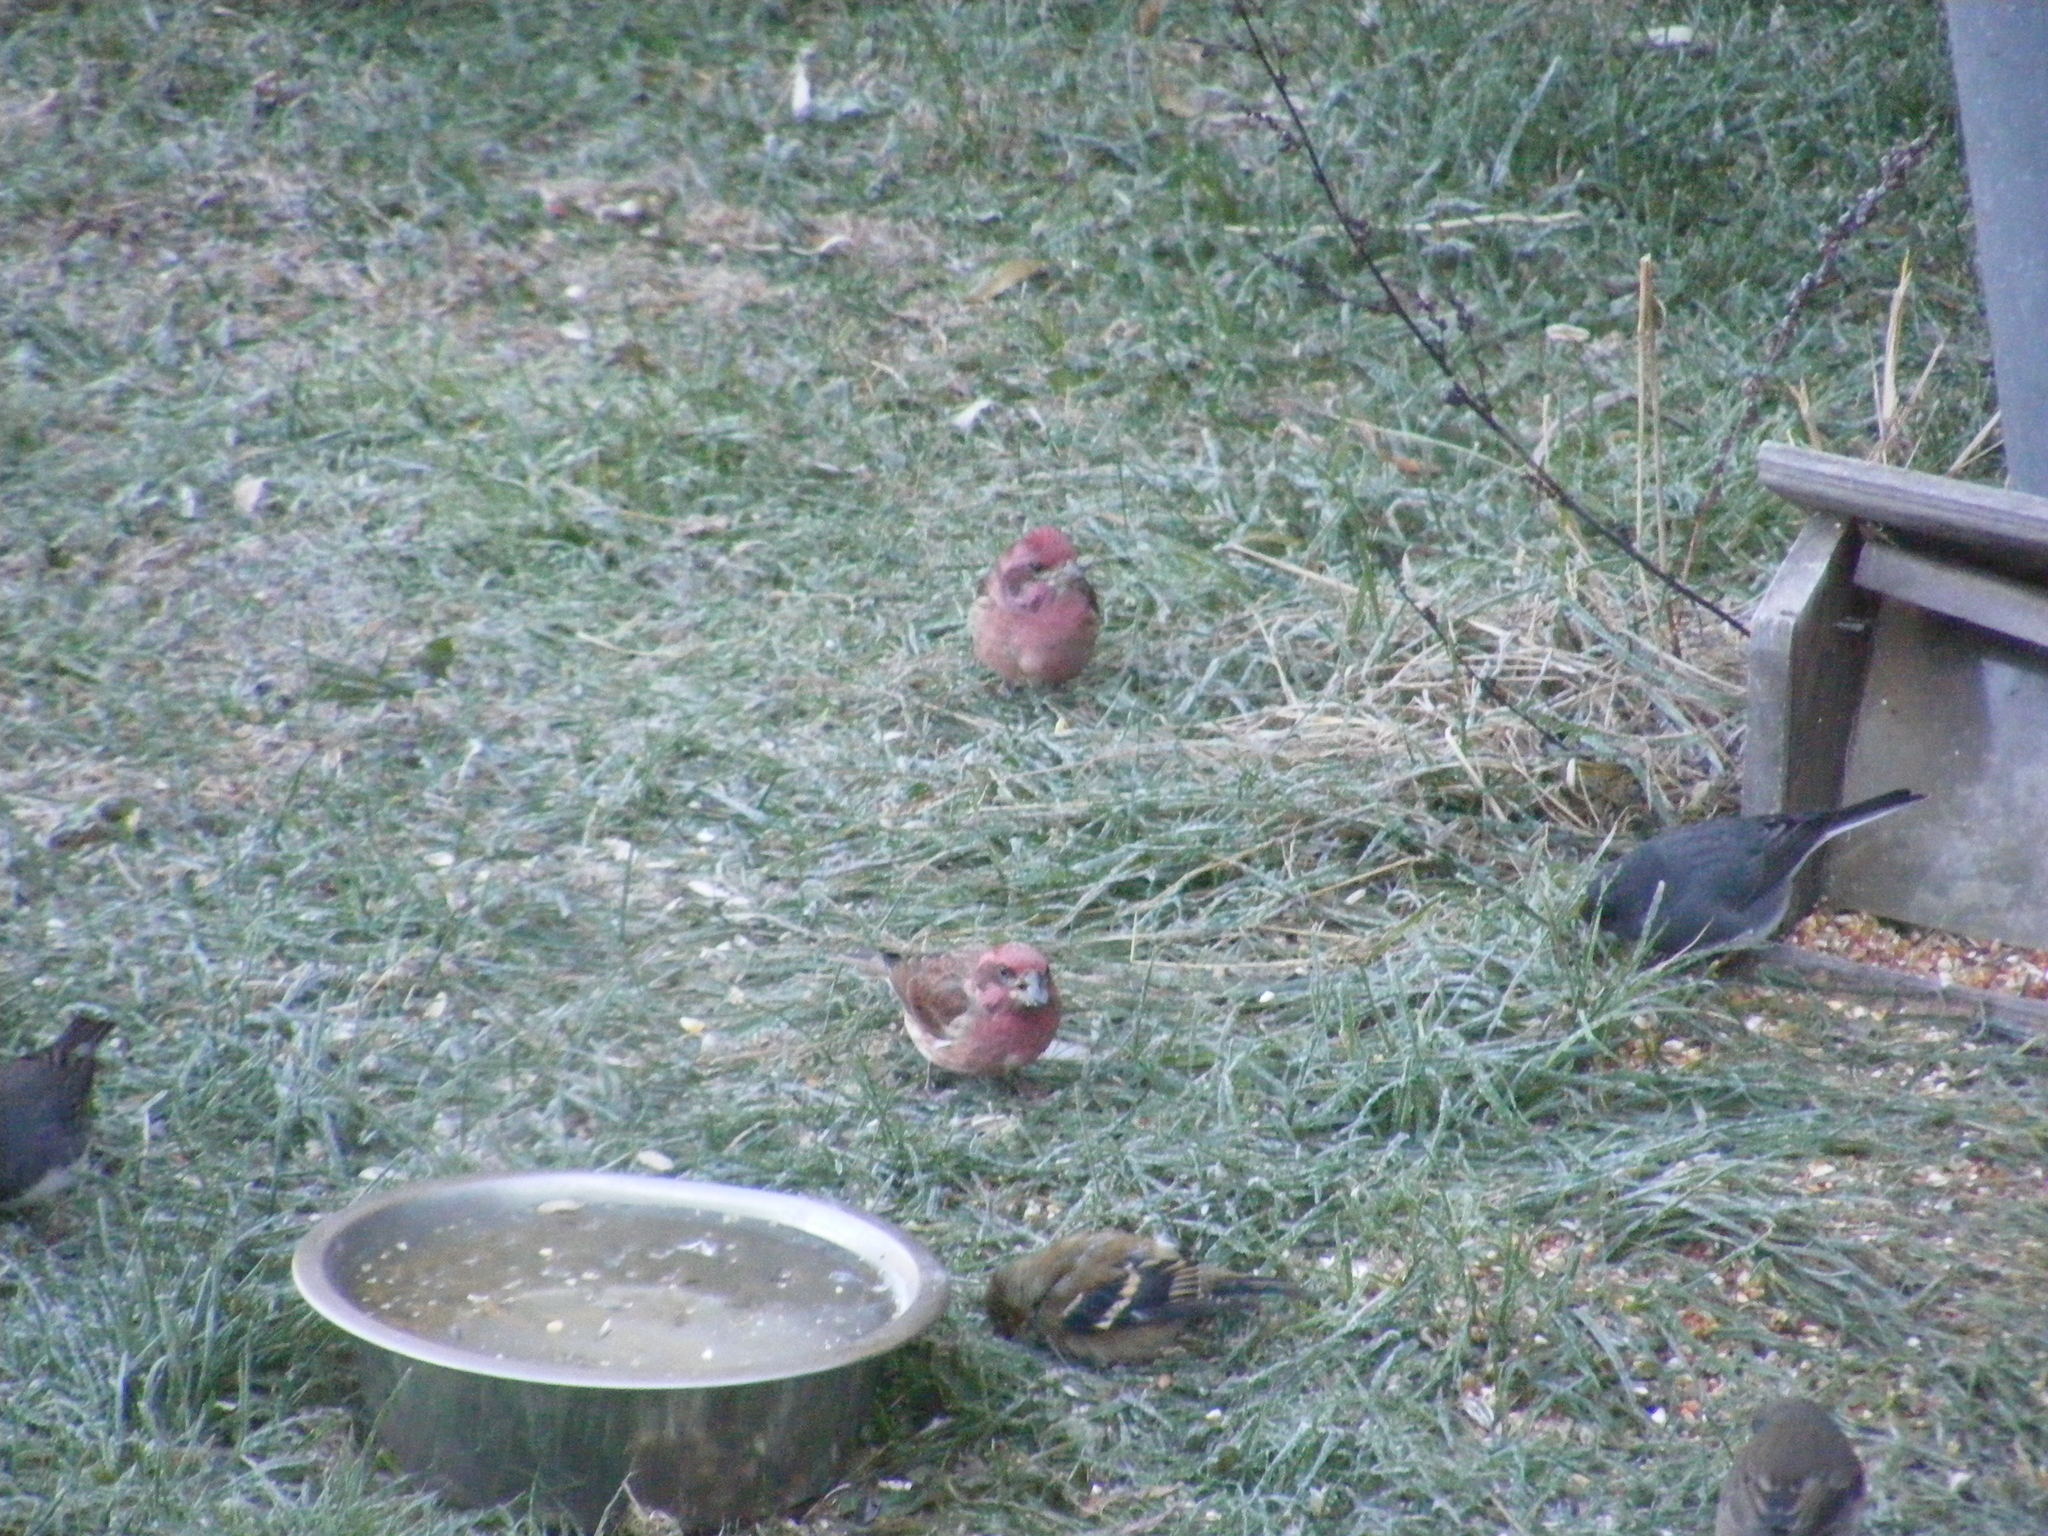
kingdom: Animalia
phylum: Chordata
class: Aves
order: Passeriformes
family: Fringillidae
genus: Haemorhous
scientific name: Haemorhous purpureus
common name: Purple finch
